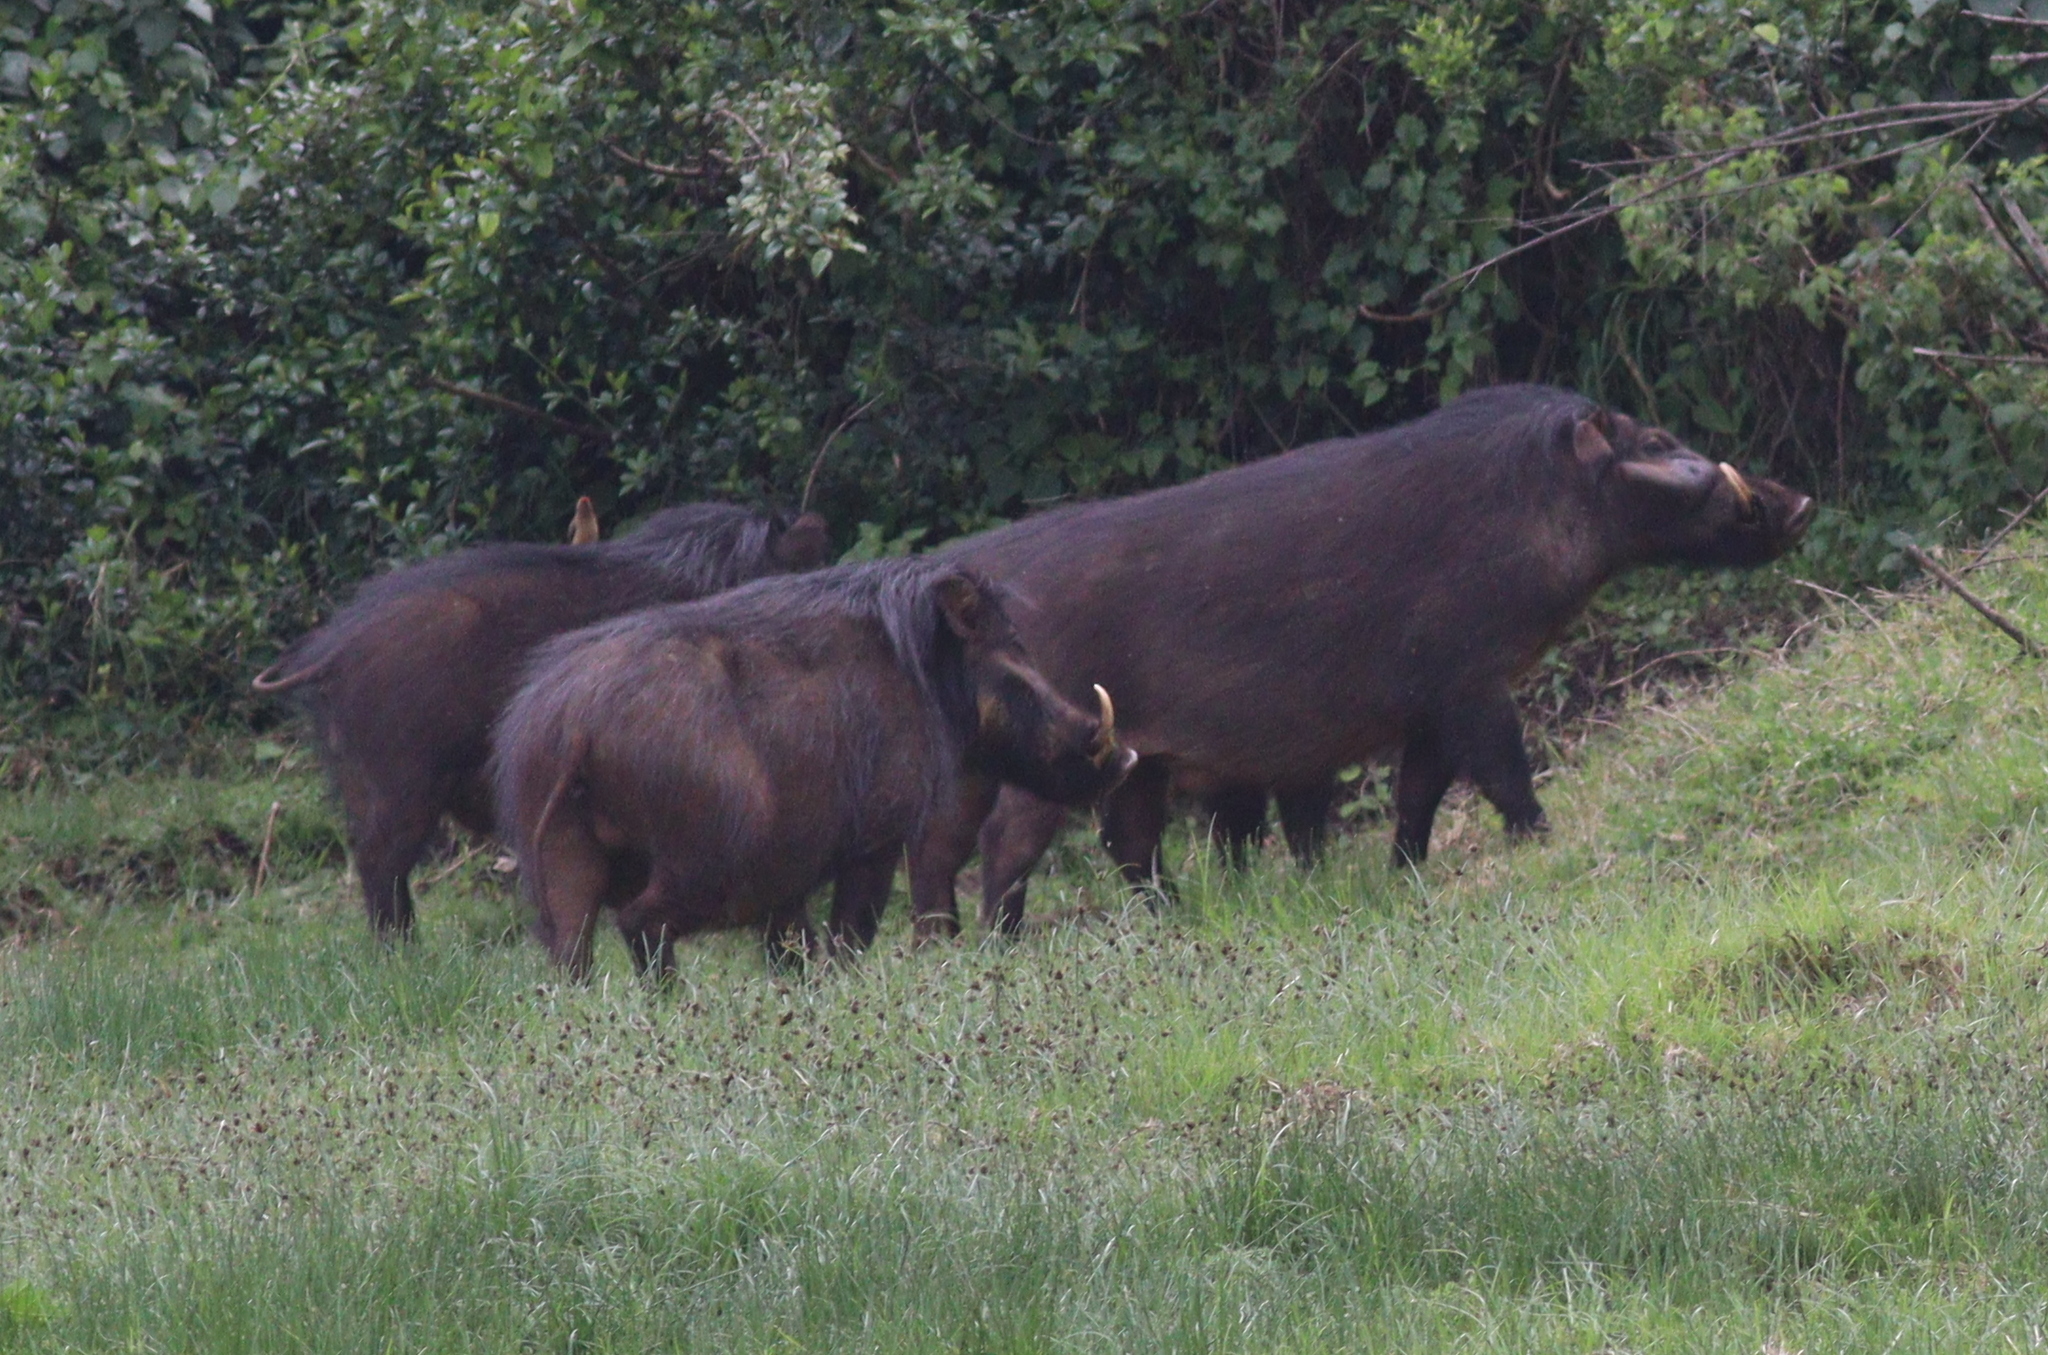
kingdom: Animalia
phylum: Chordata
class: Mammalia
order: Artiodactyla
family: Suidae
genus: Hylochoerus
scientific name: Hylochoerus meinertzhageni
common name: Giant forest hog
